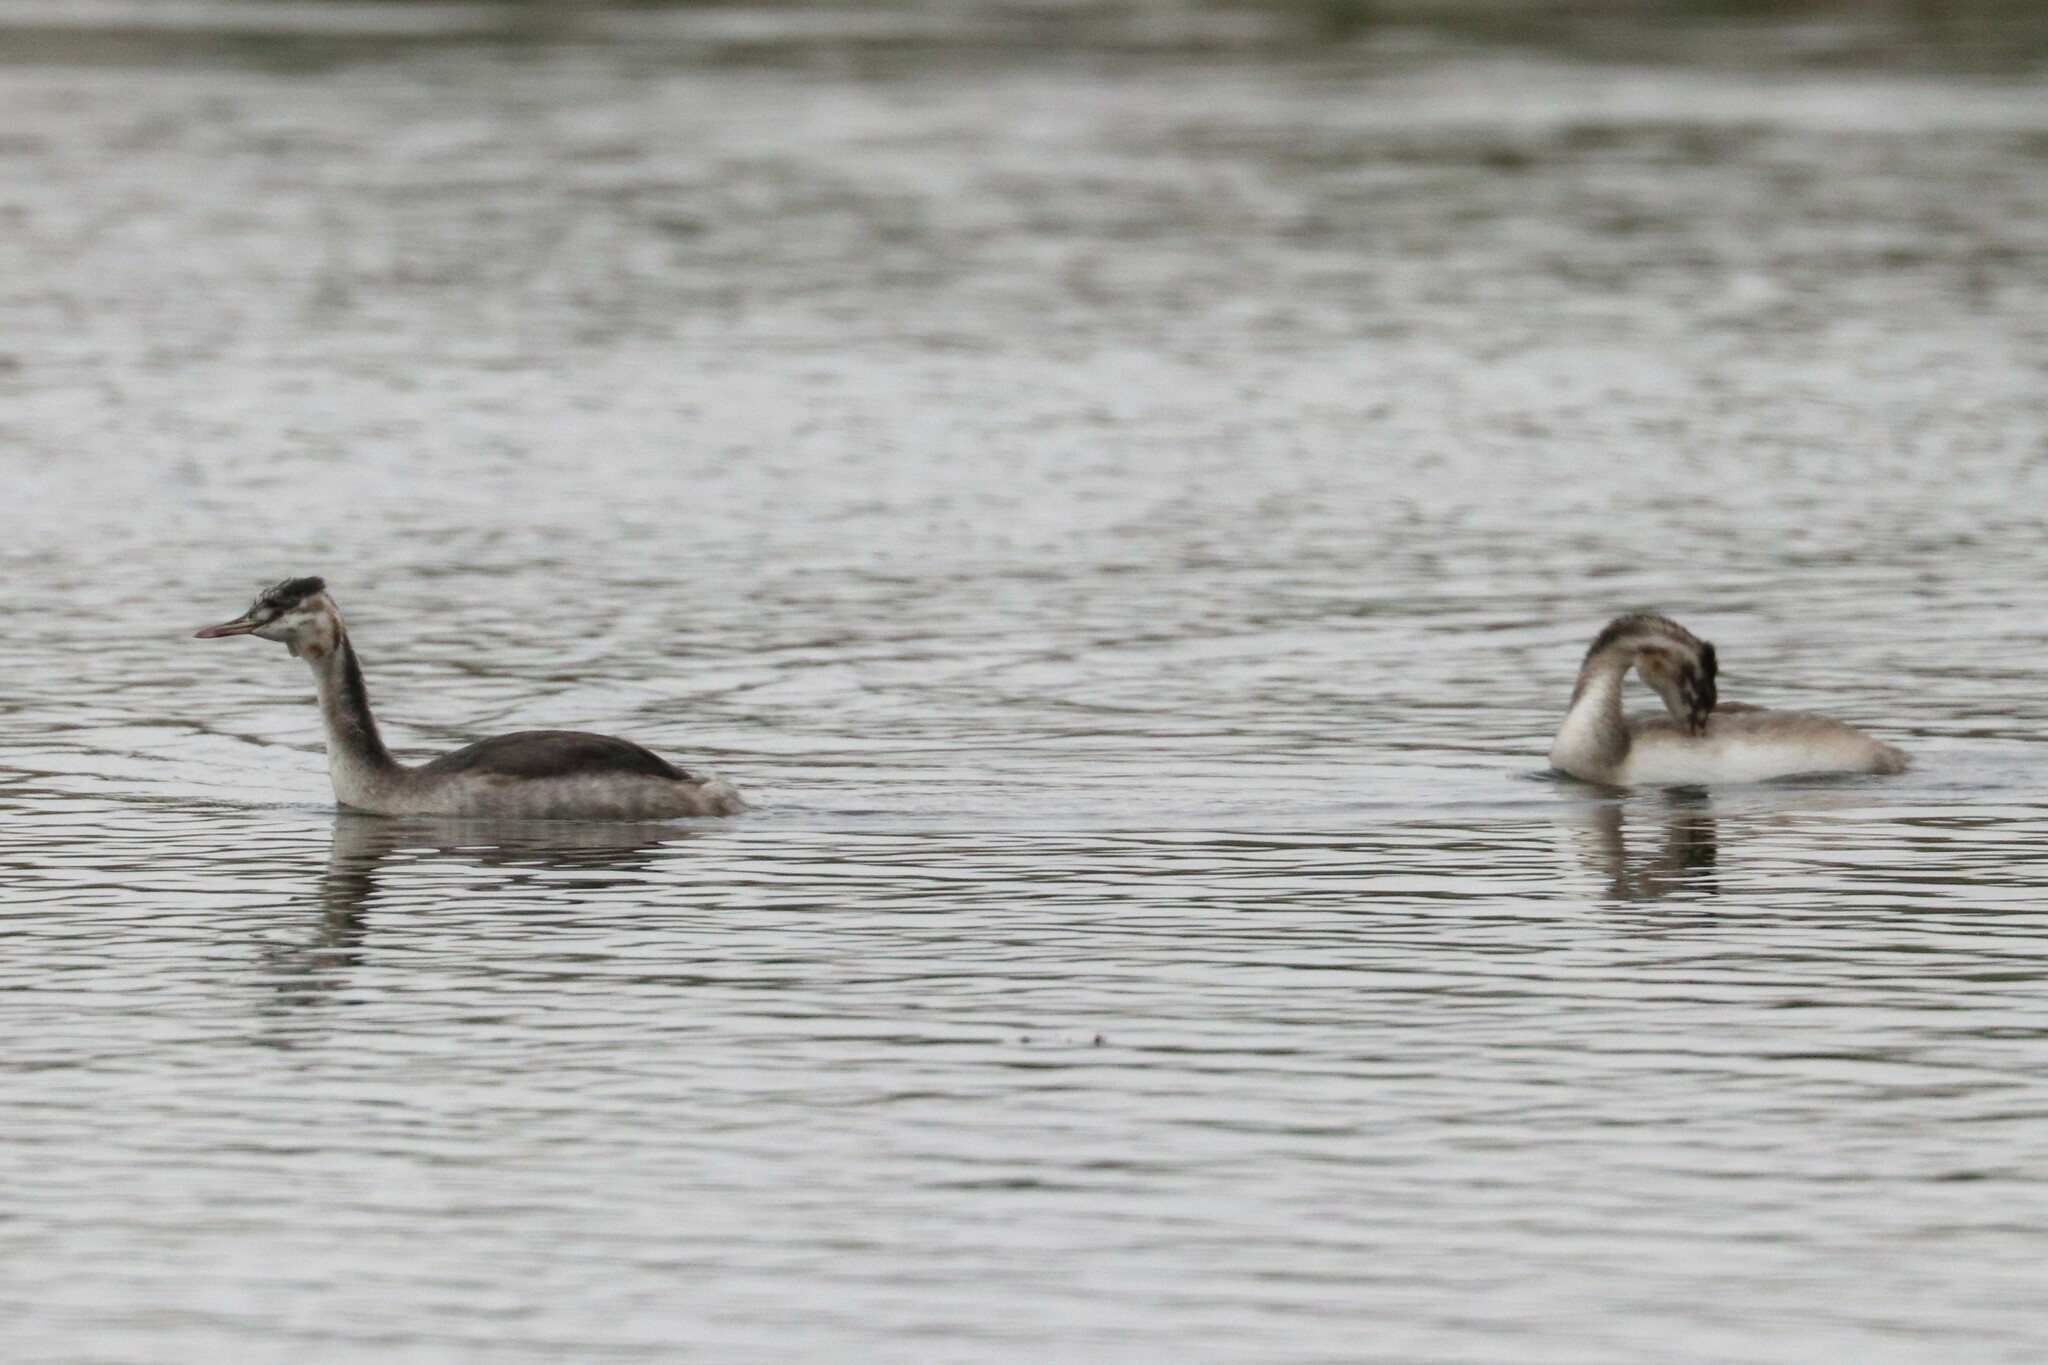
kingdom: Animalia
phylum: Chordata
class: Aves
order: Podicipediformes
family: Podicipedidae
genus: Podiceps
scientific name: Podiceps cristatus
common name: Great crested grebe
